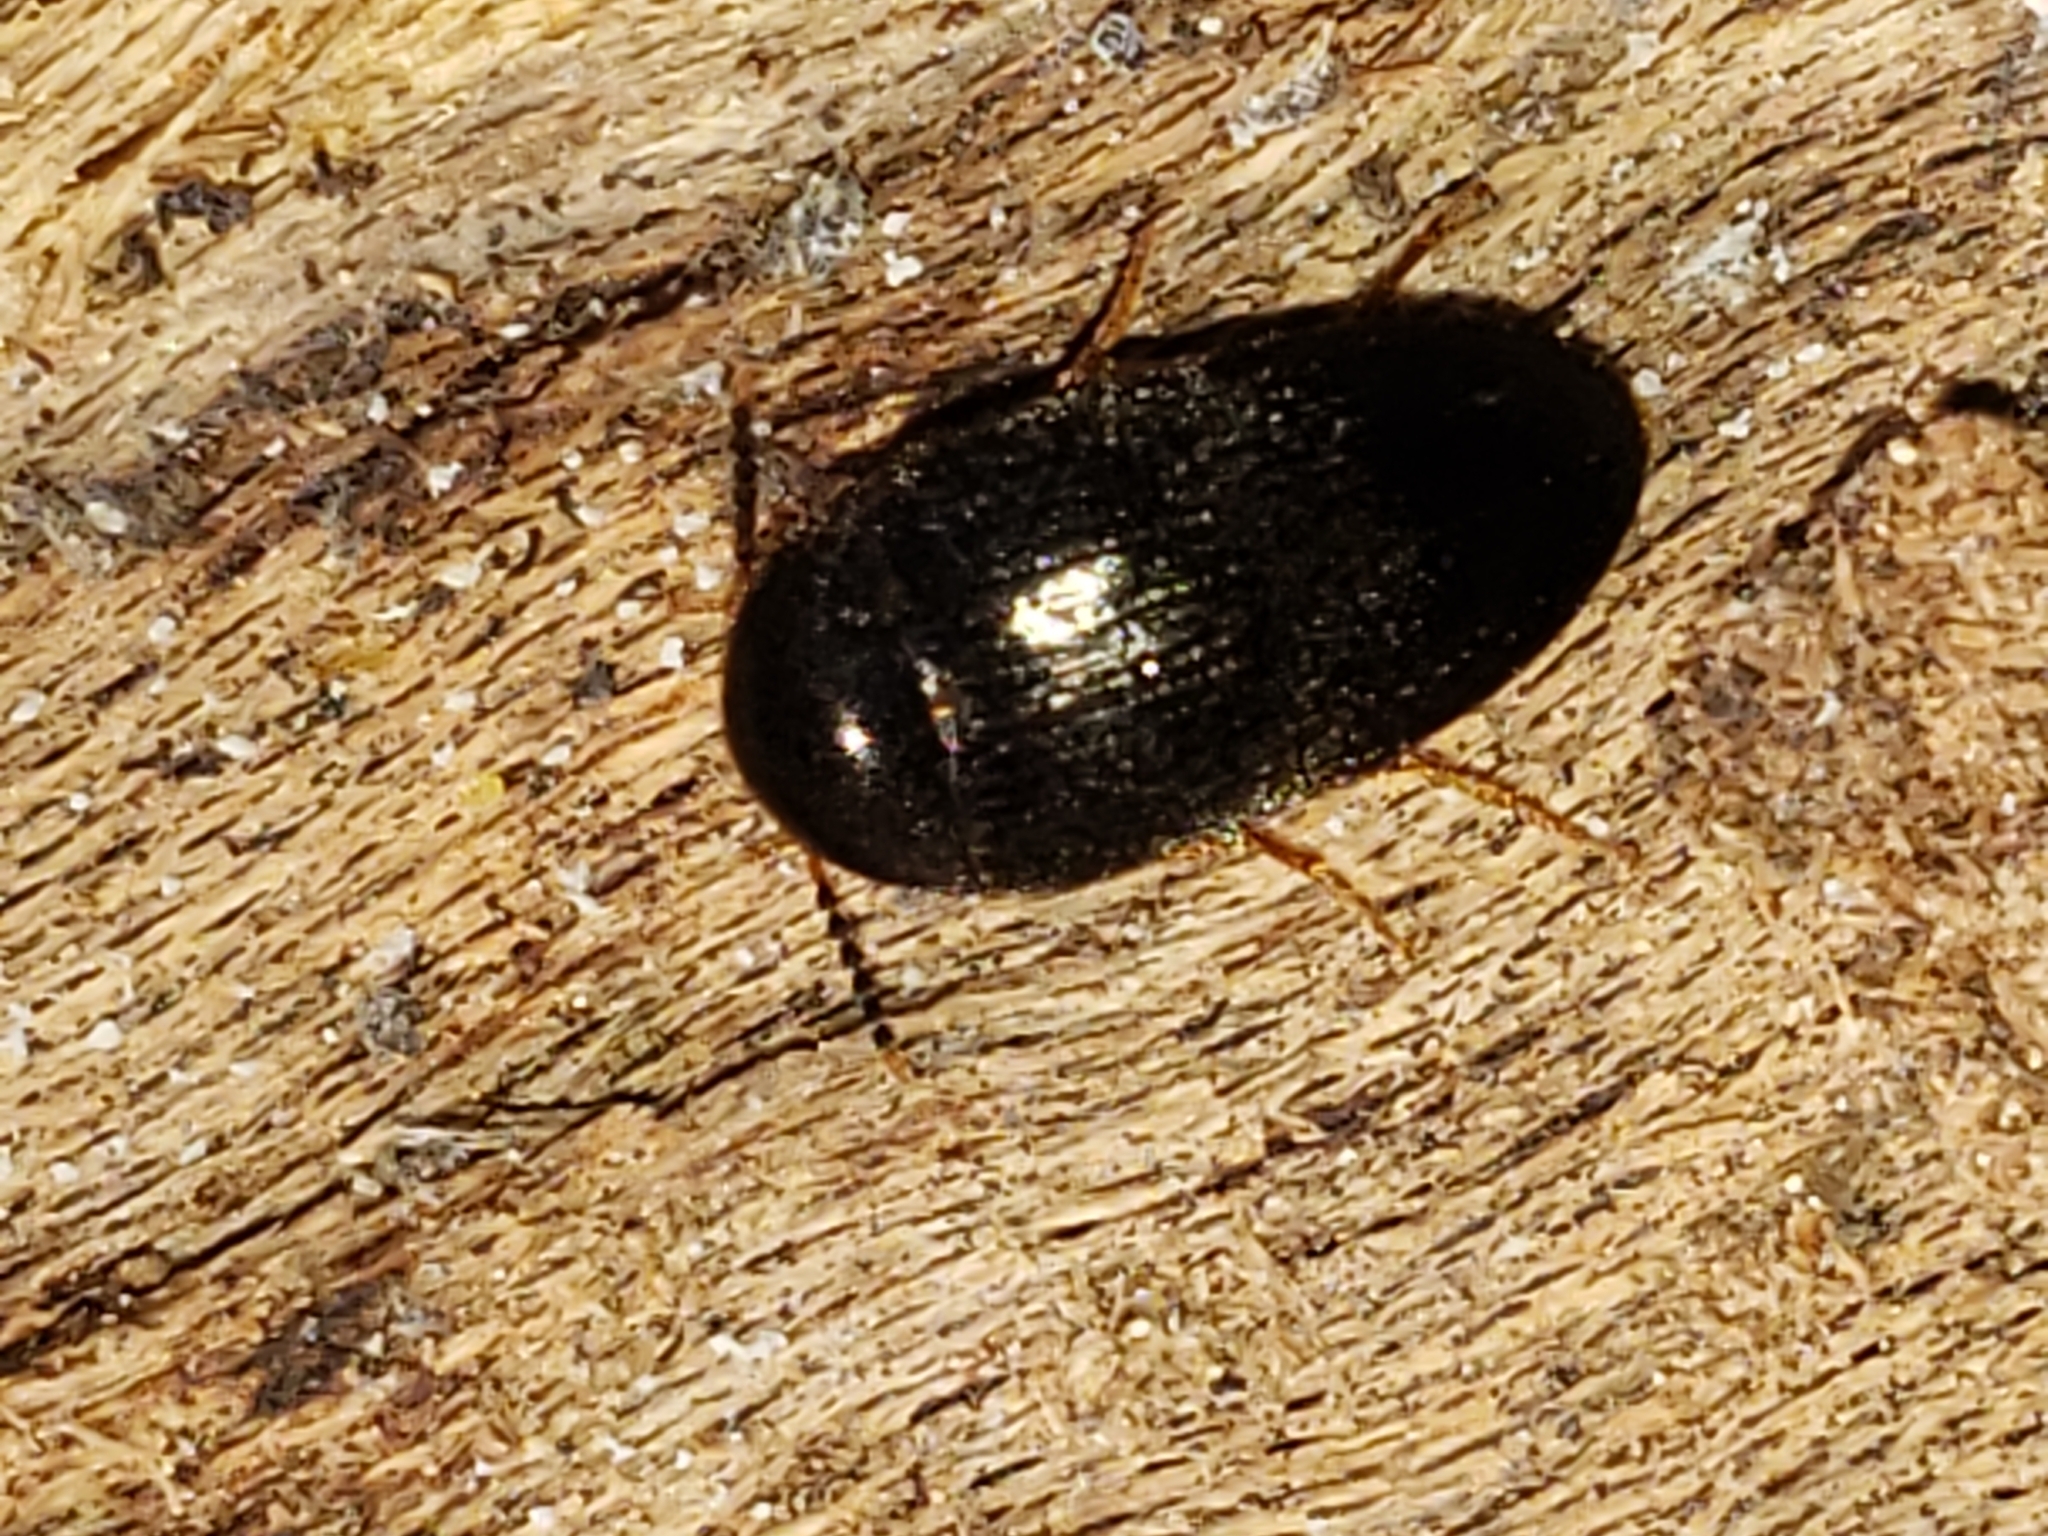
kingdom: Animalia
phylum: Arthropoda
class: Insecta
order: Coleoptera
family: Tetratomidae
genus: Eustrophopsis
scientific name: Eustrophopsis bicolor
